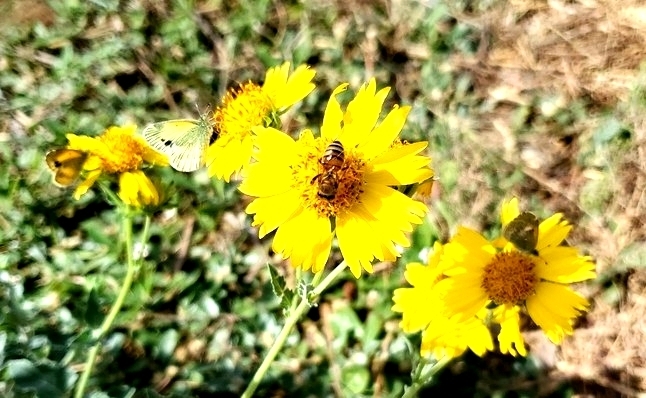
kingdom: Animalia
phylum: Arthropoda
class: Insecta
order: Hymenoptera
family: Apidae
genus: Apis
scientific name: Apis mellifera
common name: Honey bee
